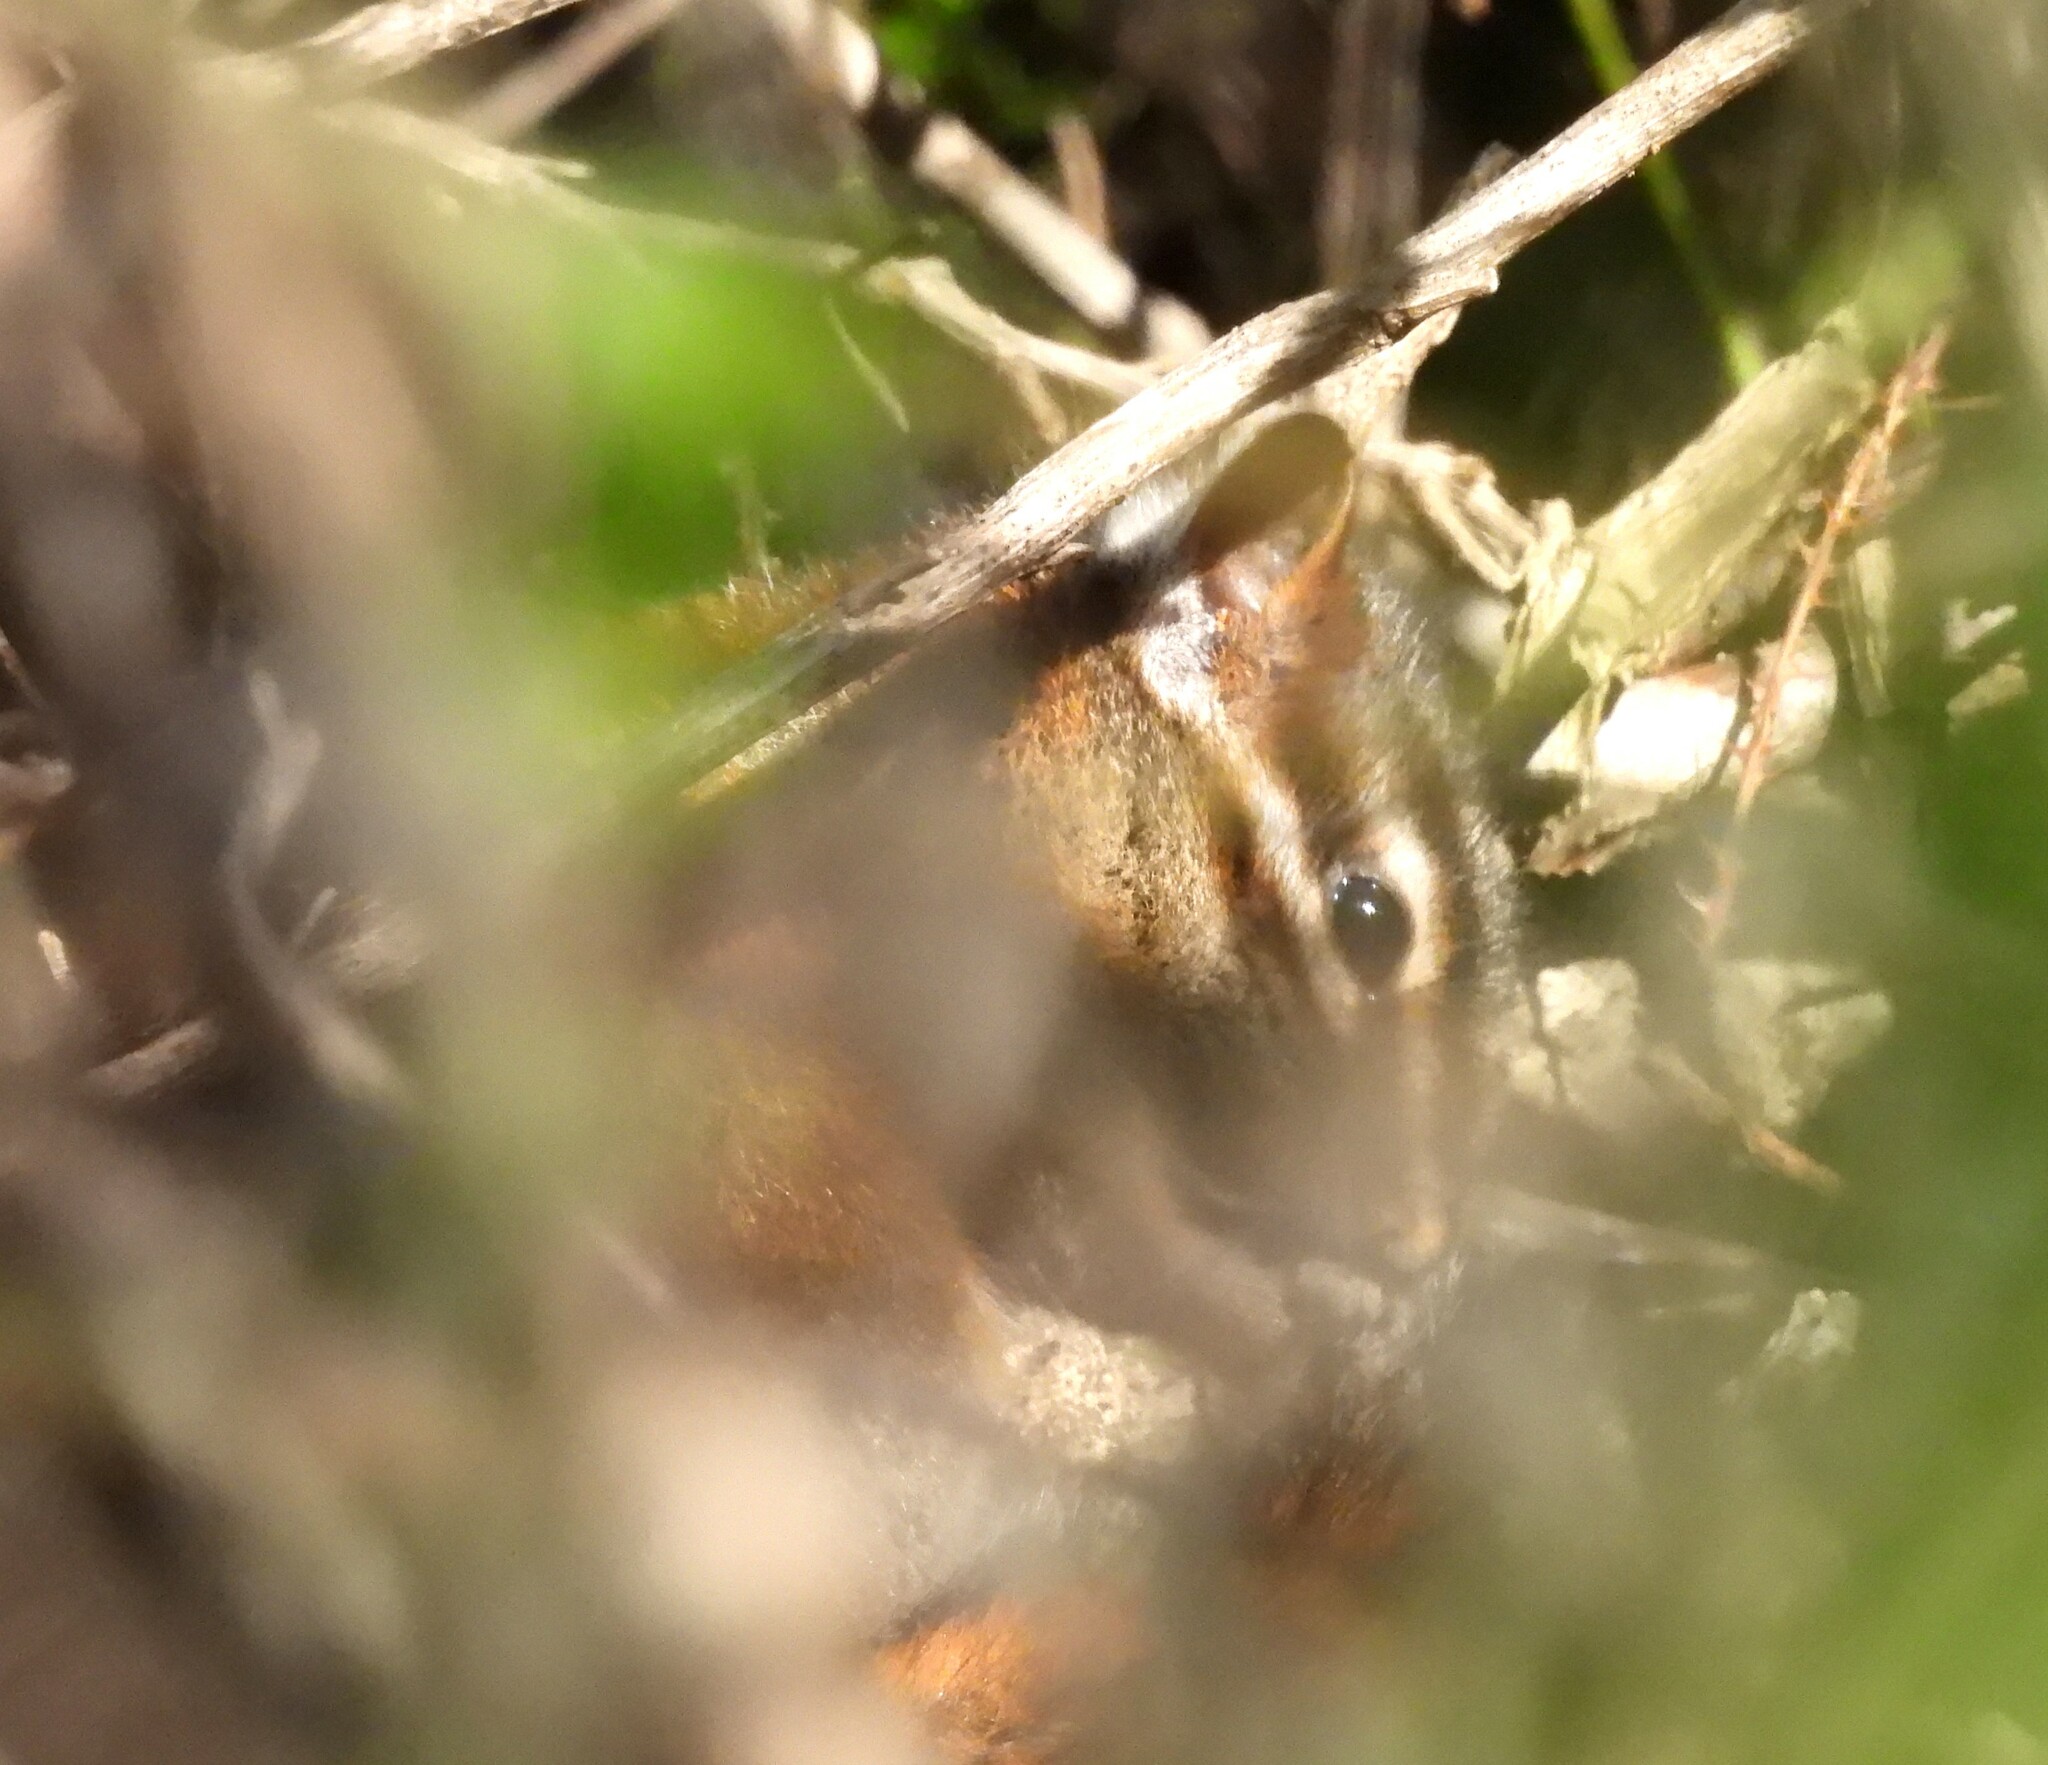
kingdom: Animalia
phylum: Chordata
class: Mammalia
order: Rodentia
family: Sciuridae
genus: Tamias
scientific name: Tamias sonomae
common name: Sonoma chipmunk
